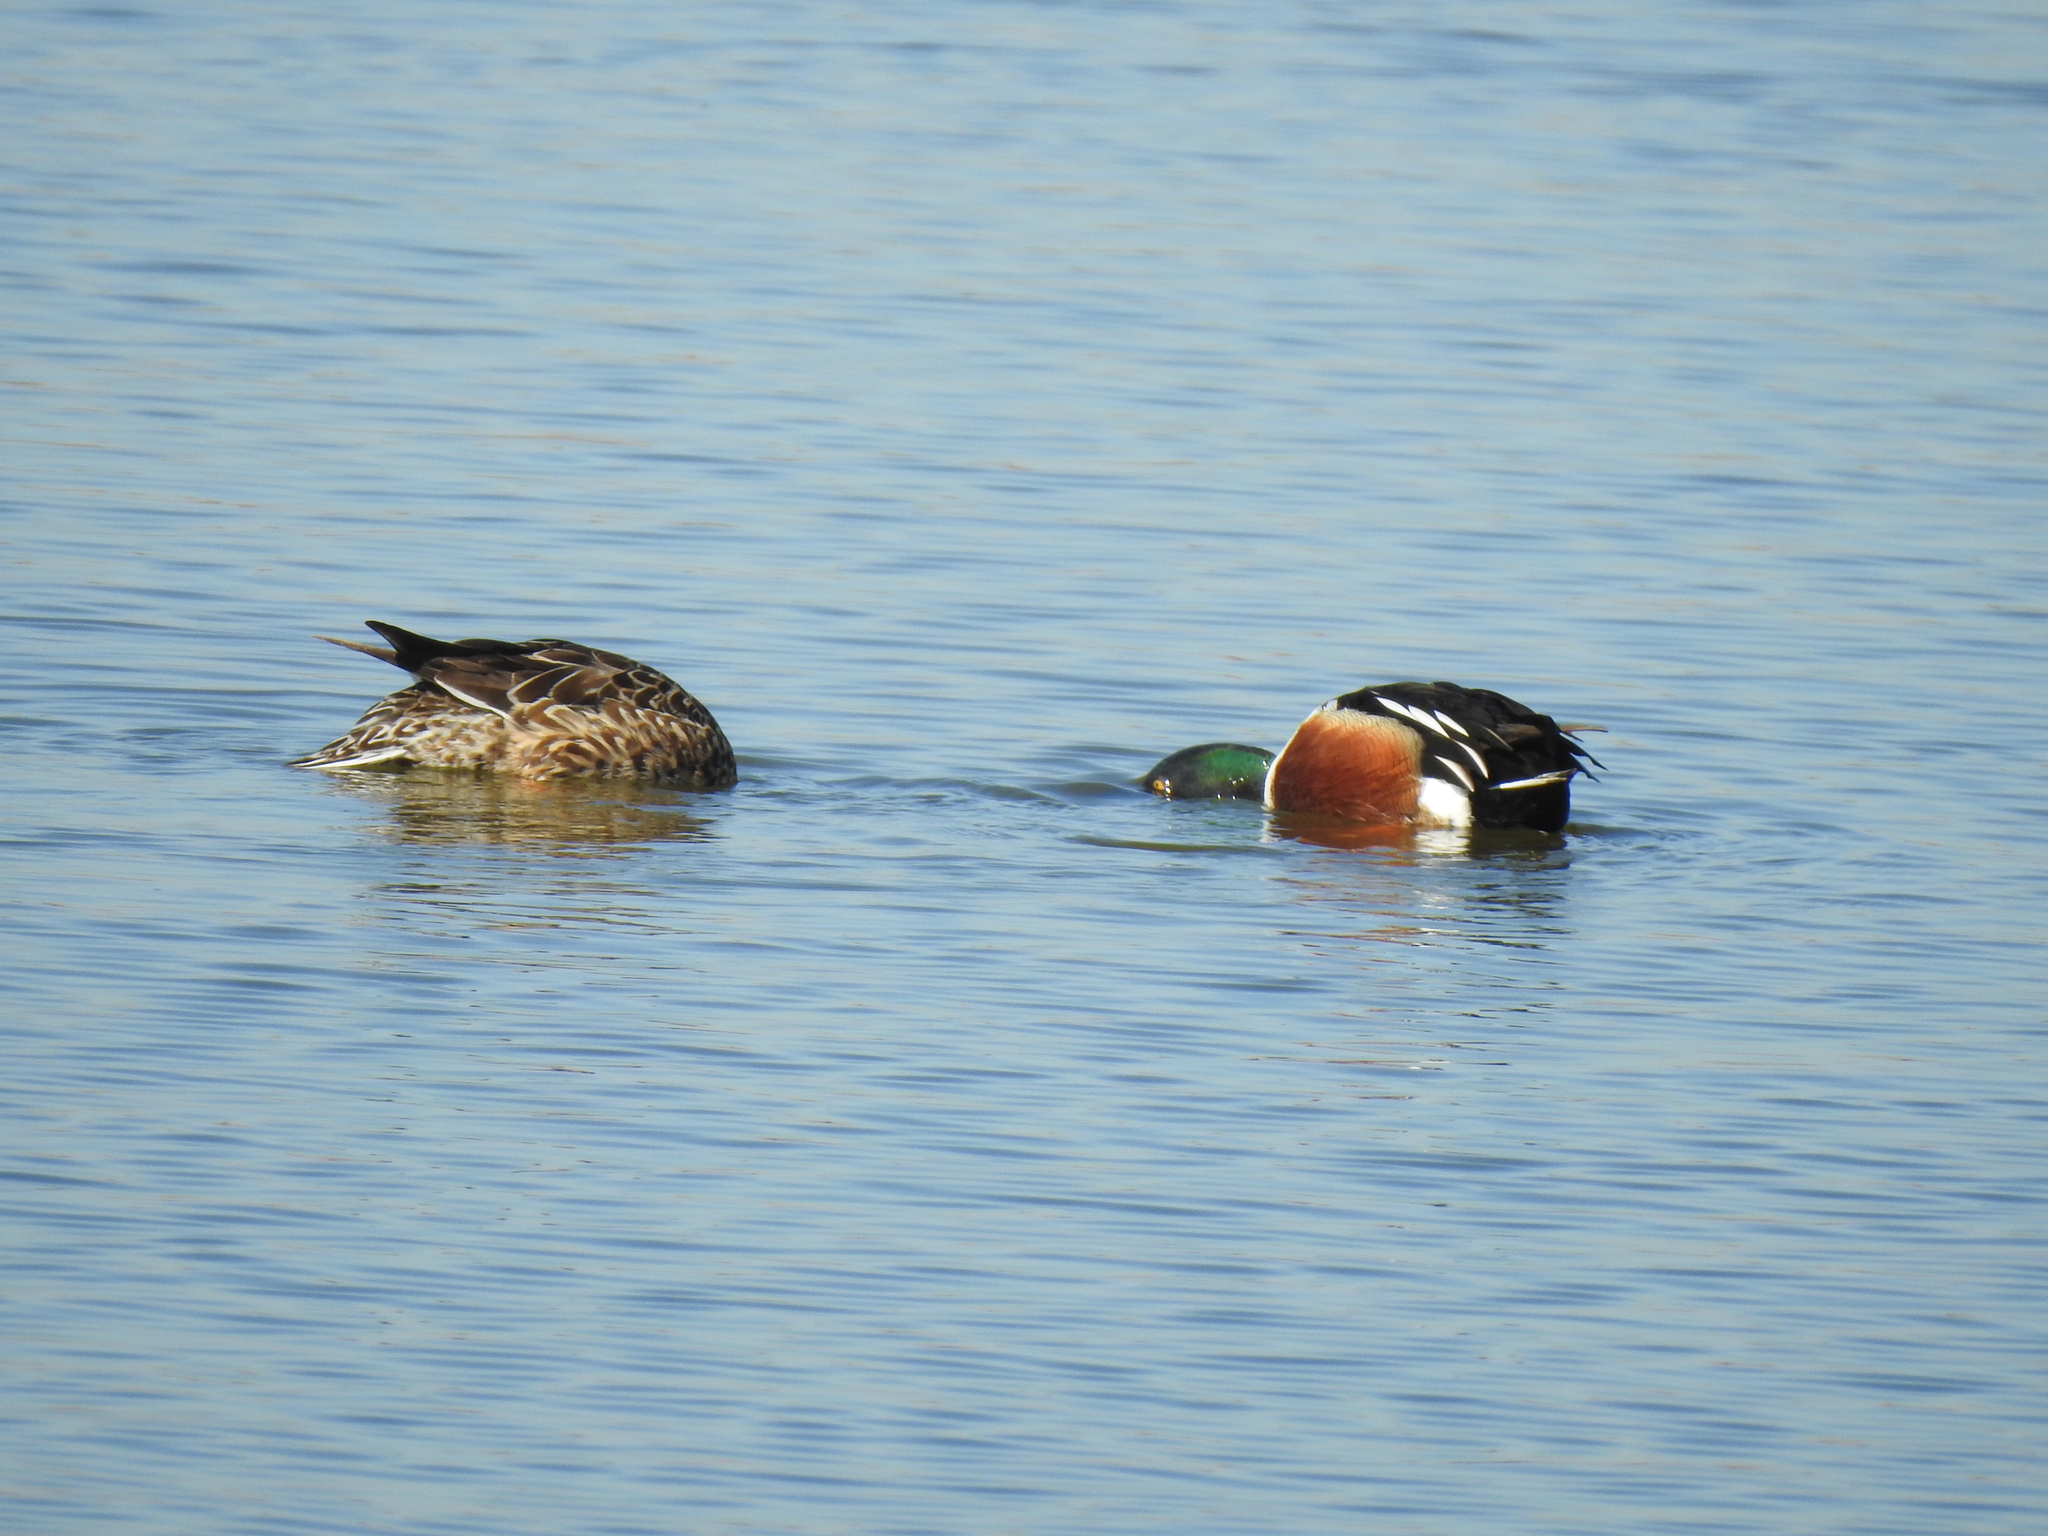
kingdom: Animalia
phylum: Chordata
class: Aves
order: Anseriformes
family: Anatidae
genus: Spatula
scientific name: Spatula clypeata
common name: Northern shoveler
